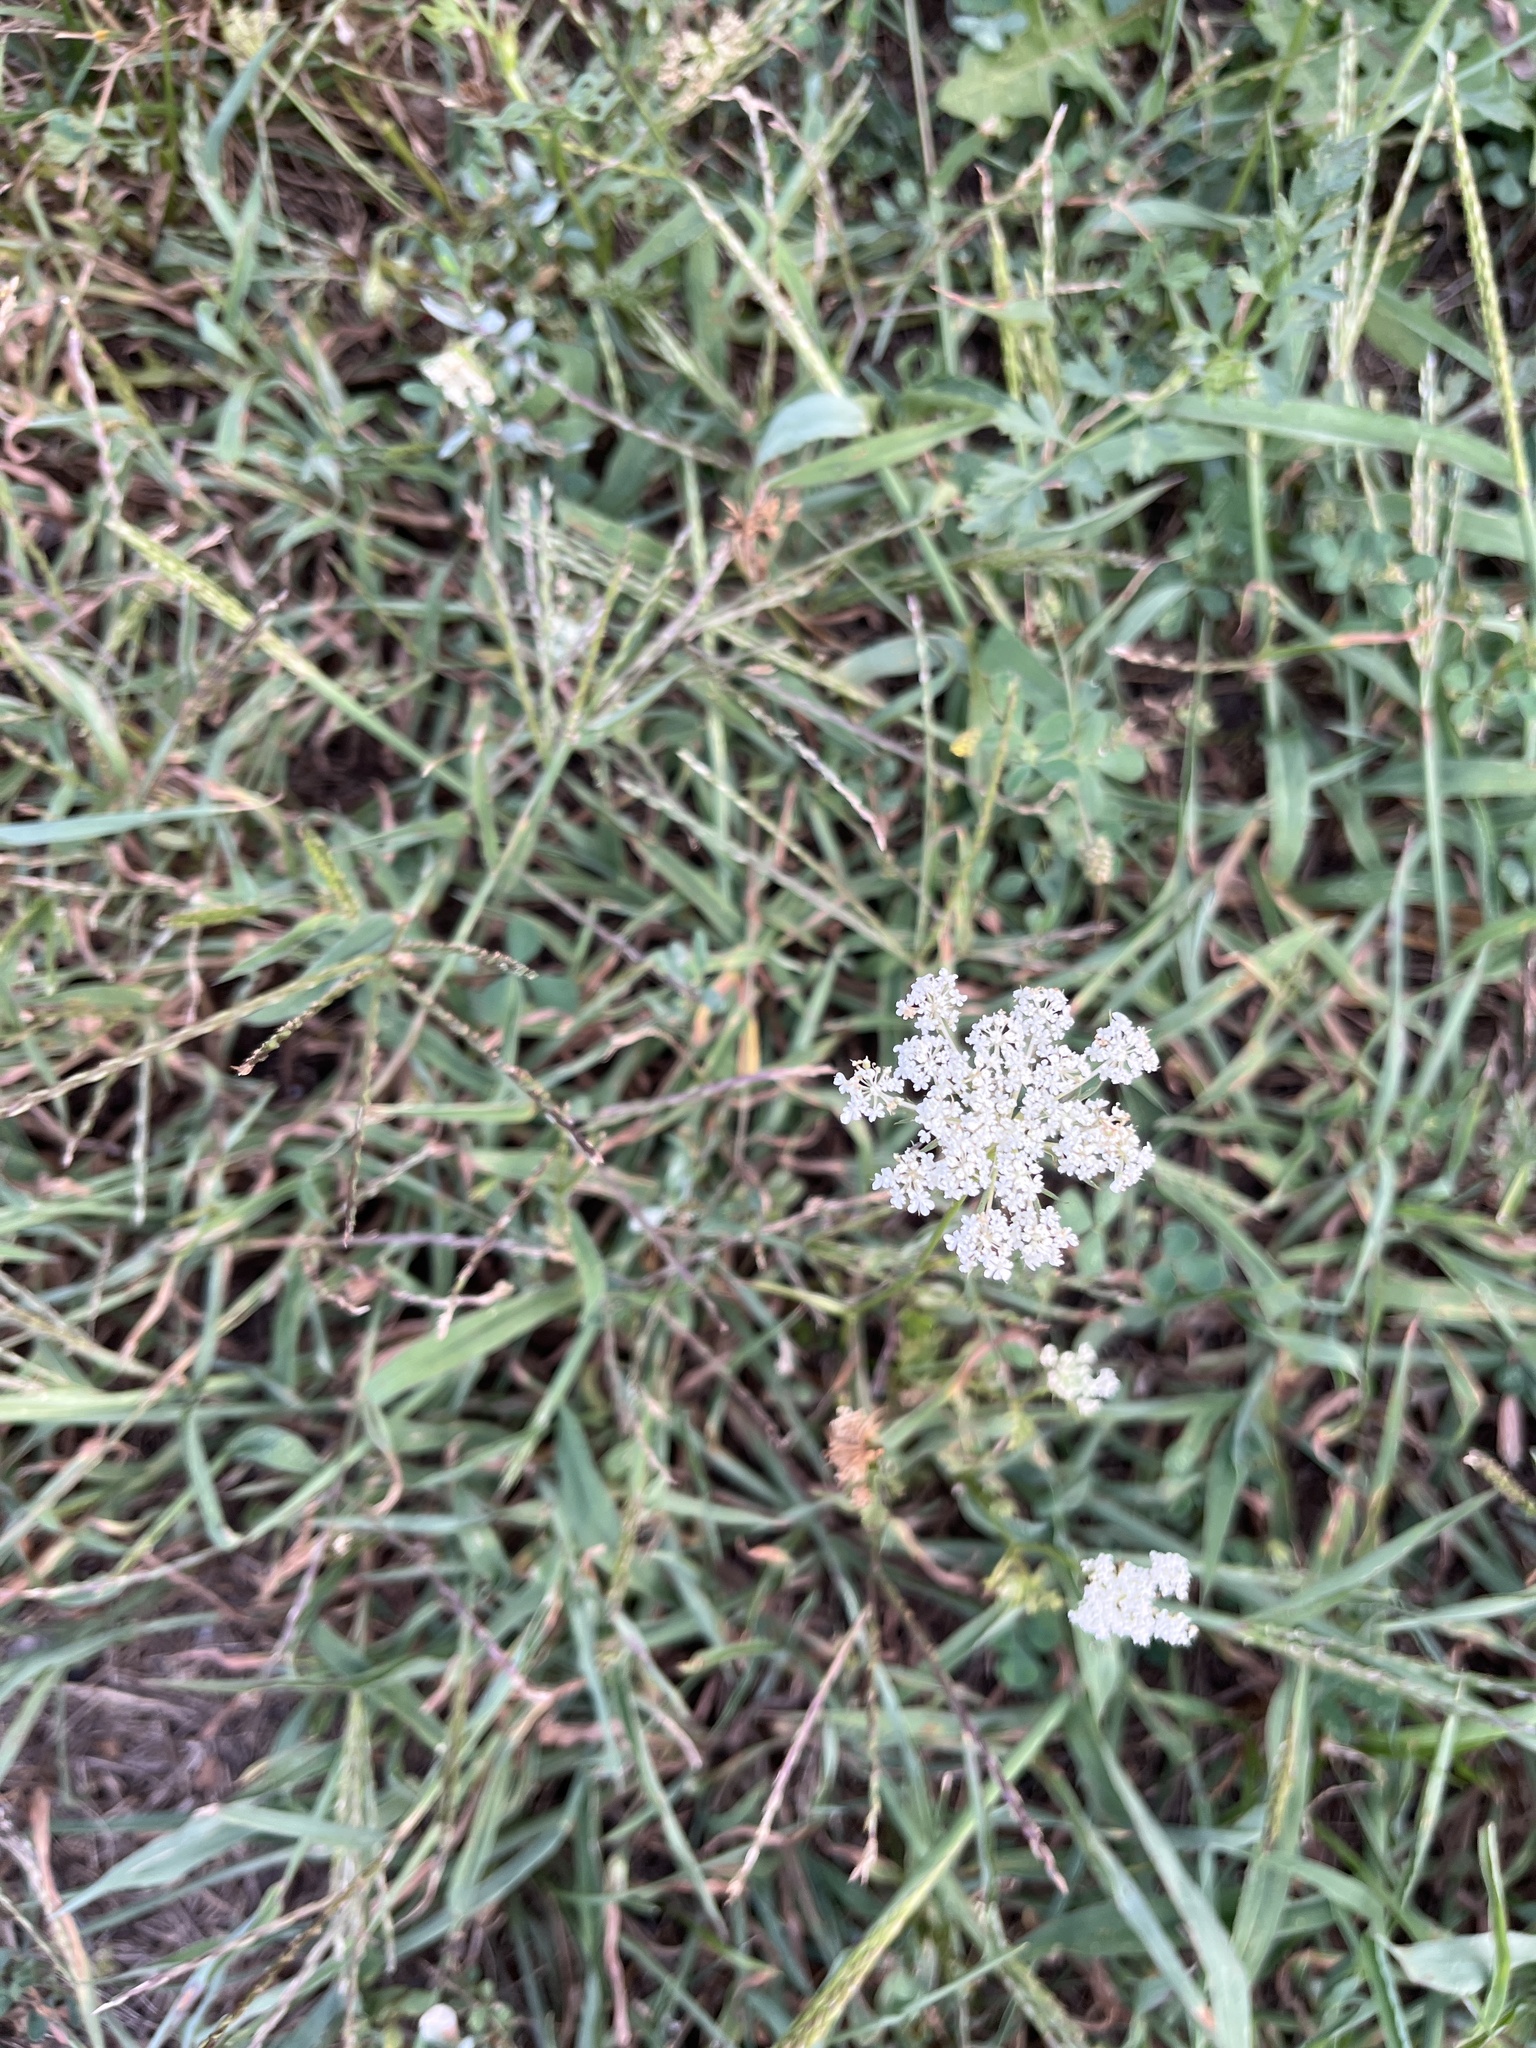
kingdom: Plantae
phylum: Tracheophyta
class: Magnoliopsida
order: Apiales
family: Apiaceae
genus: Daucus
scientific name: Daucus carota
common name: Wild carrot
